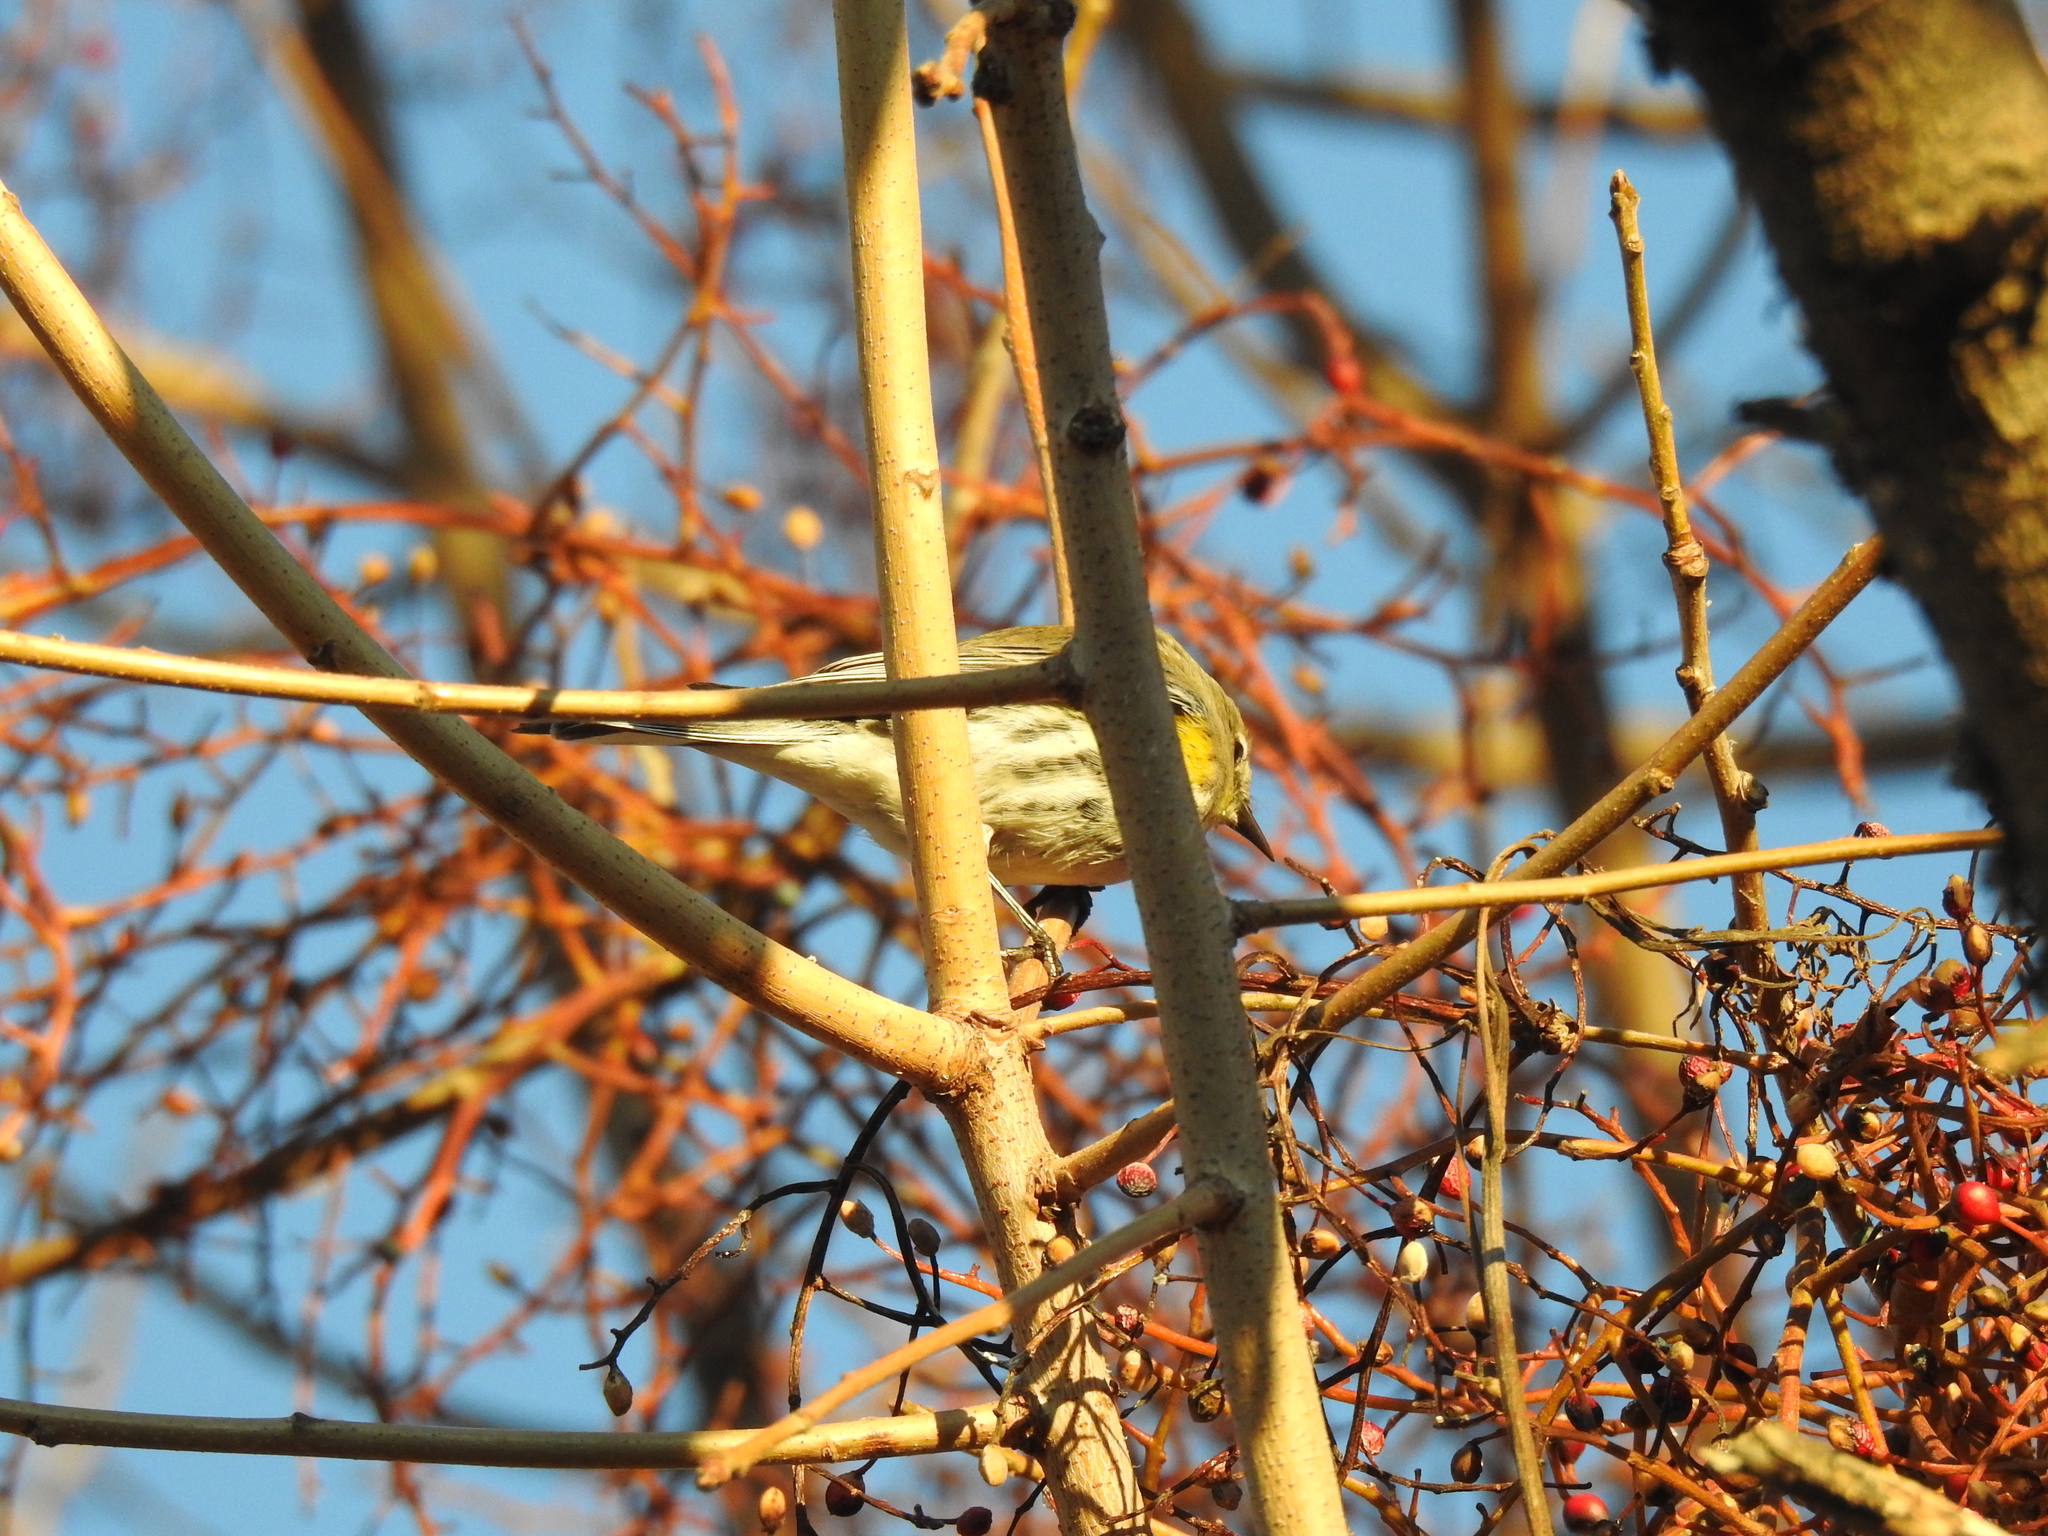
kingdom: Animalia
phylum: Chordata
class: Aves
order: Passeriformes
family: Parulidae
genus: Setophaga
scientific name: Setophaga coronata
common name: Myrtle warbler
